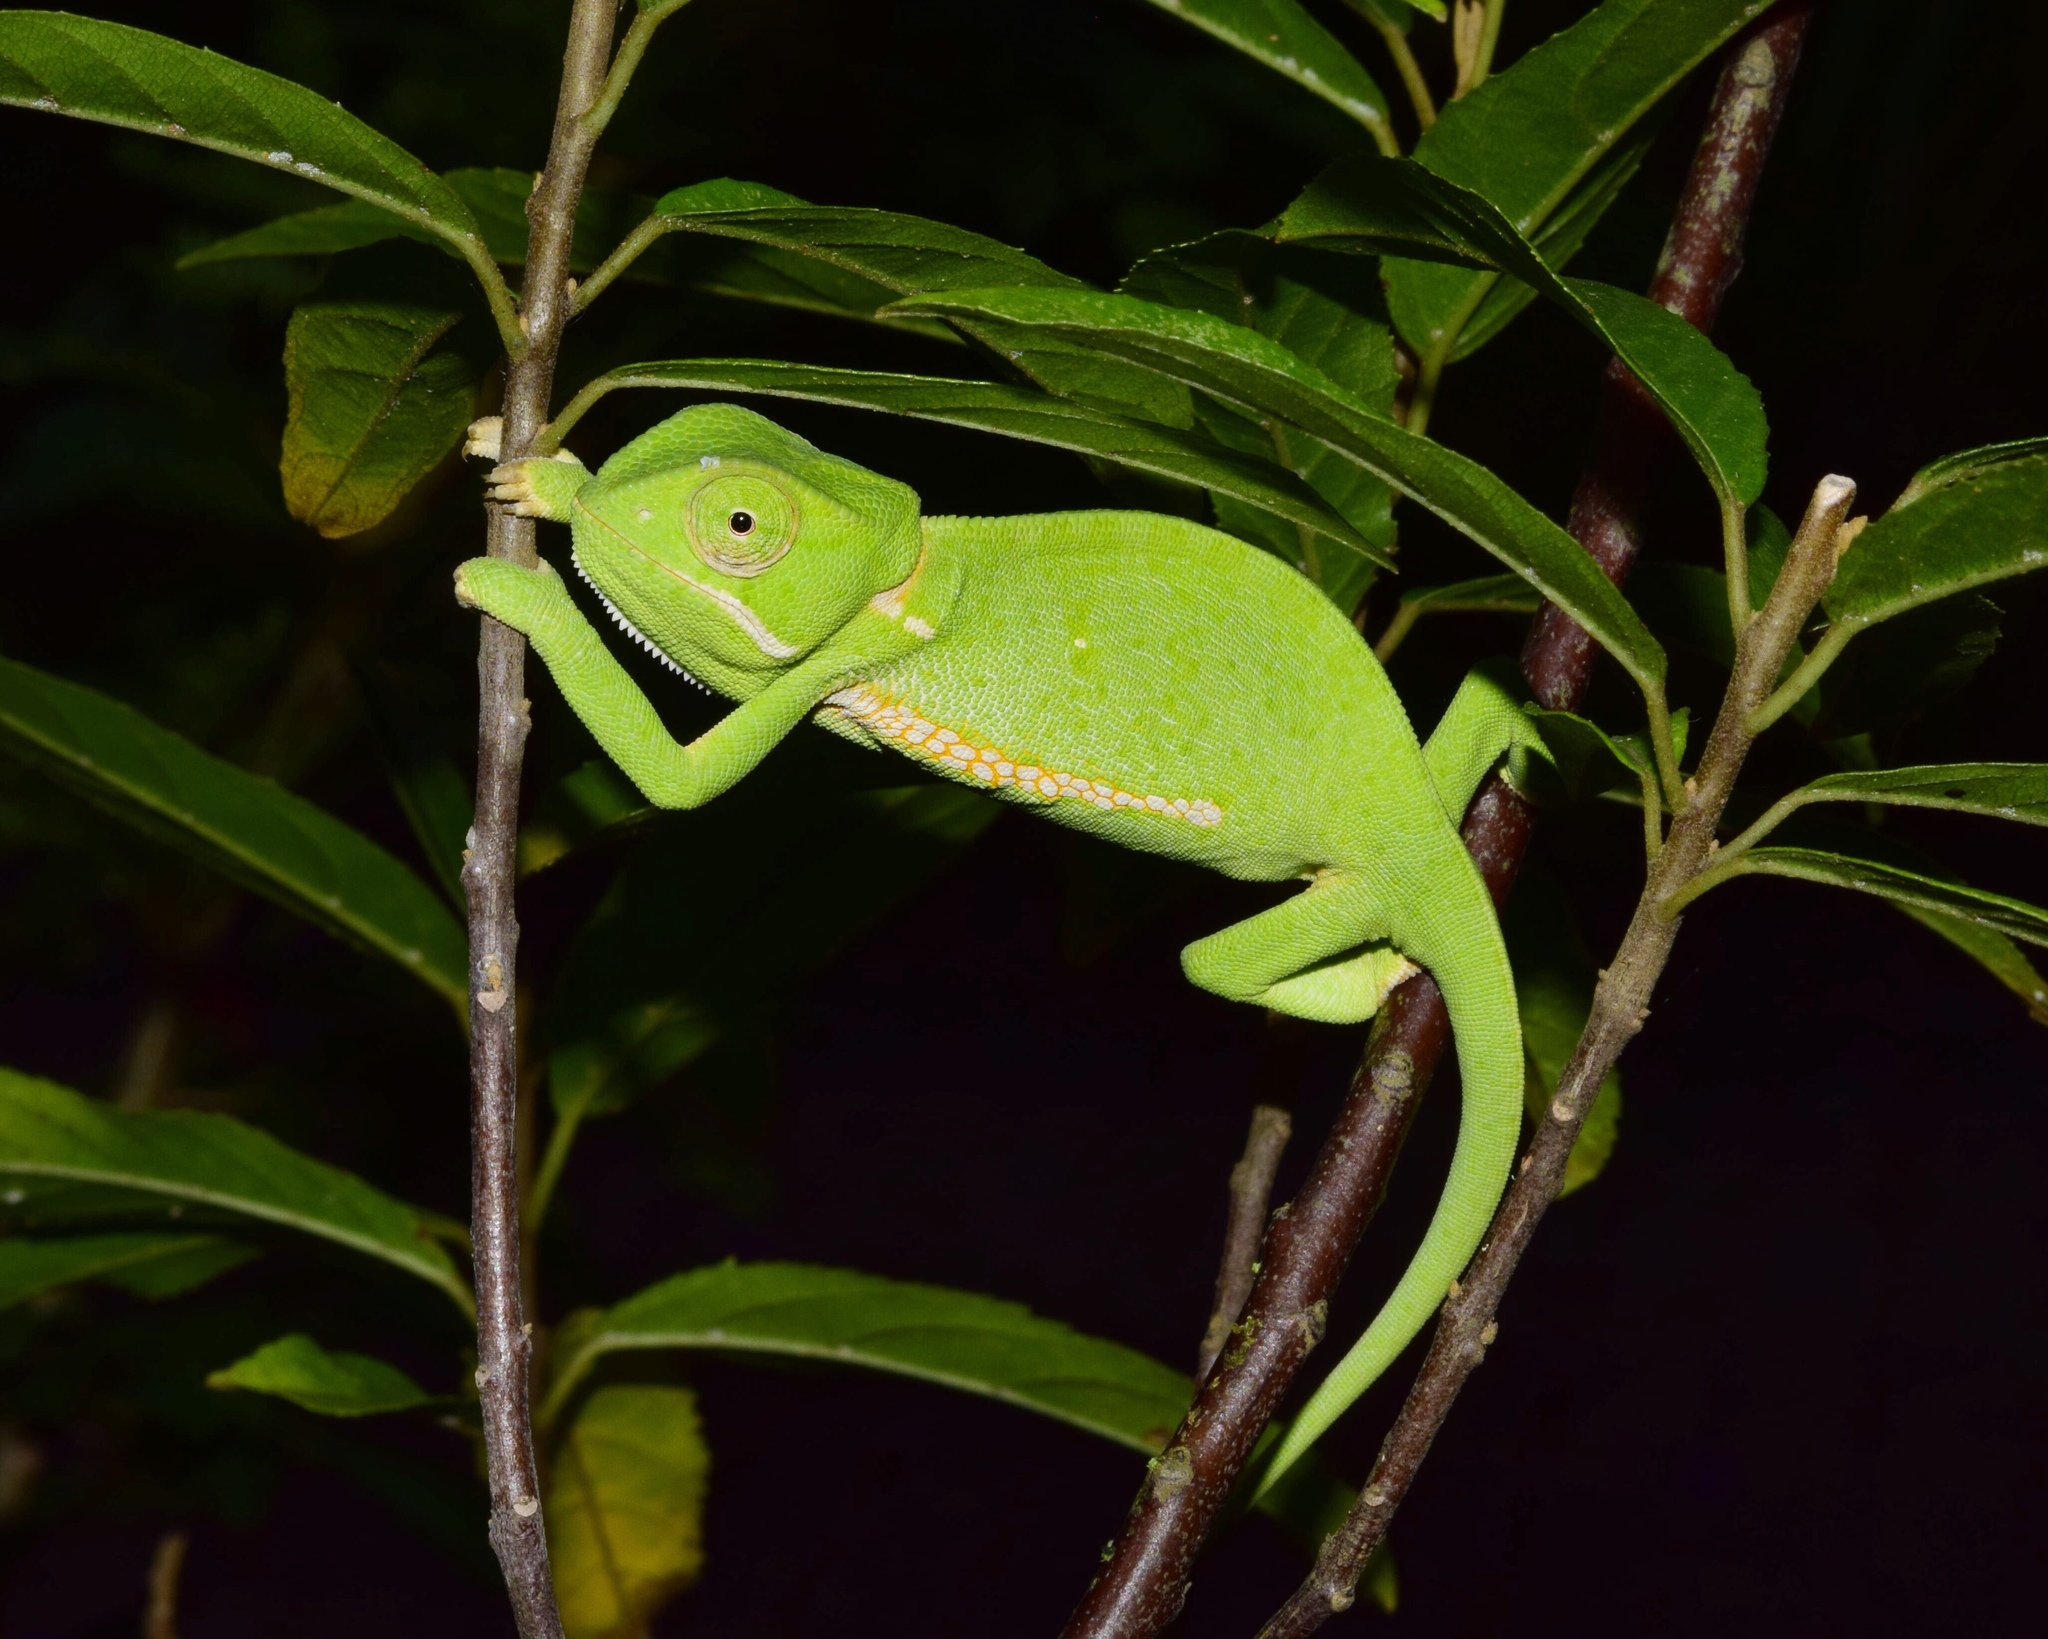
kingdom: Animalia
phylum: Chordata
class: Squamata
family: Chamaeleonidae
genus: Chamaeleo
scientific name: Chamaeleo dilepis
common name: Flapneck chameleon
